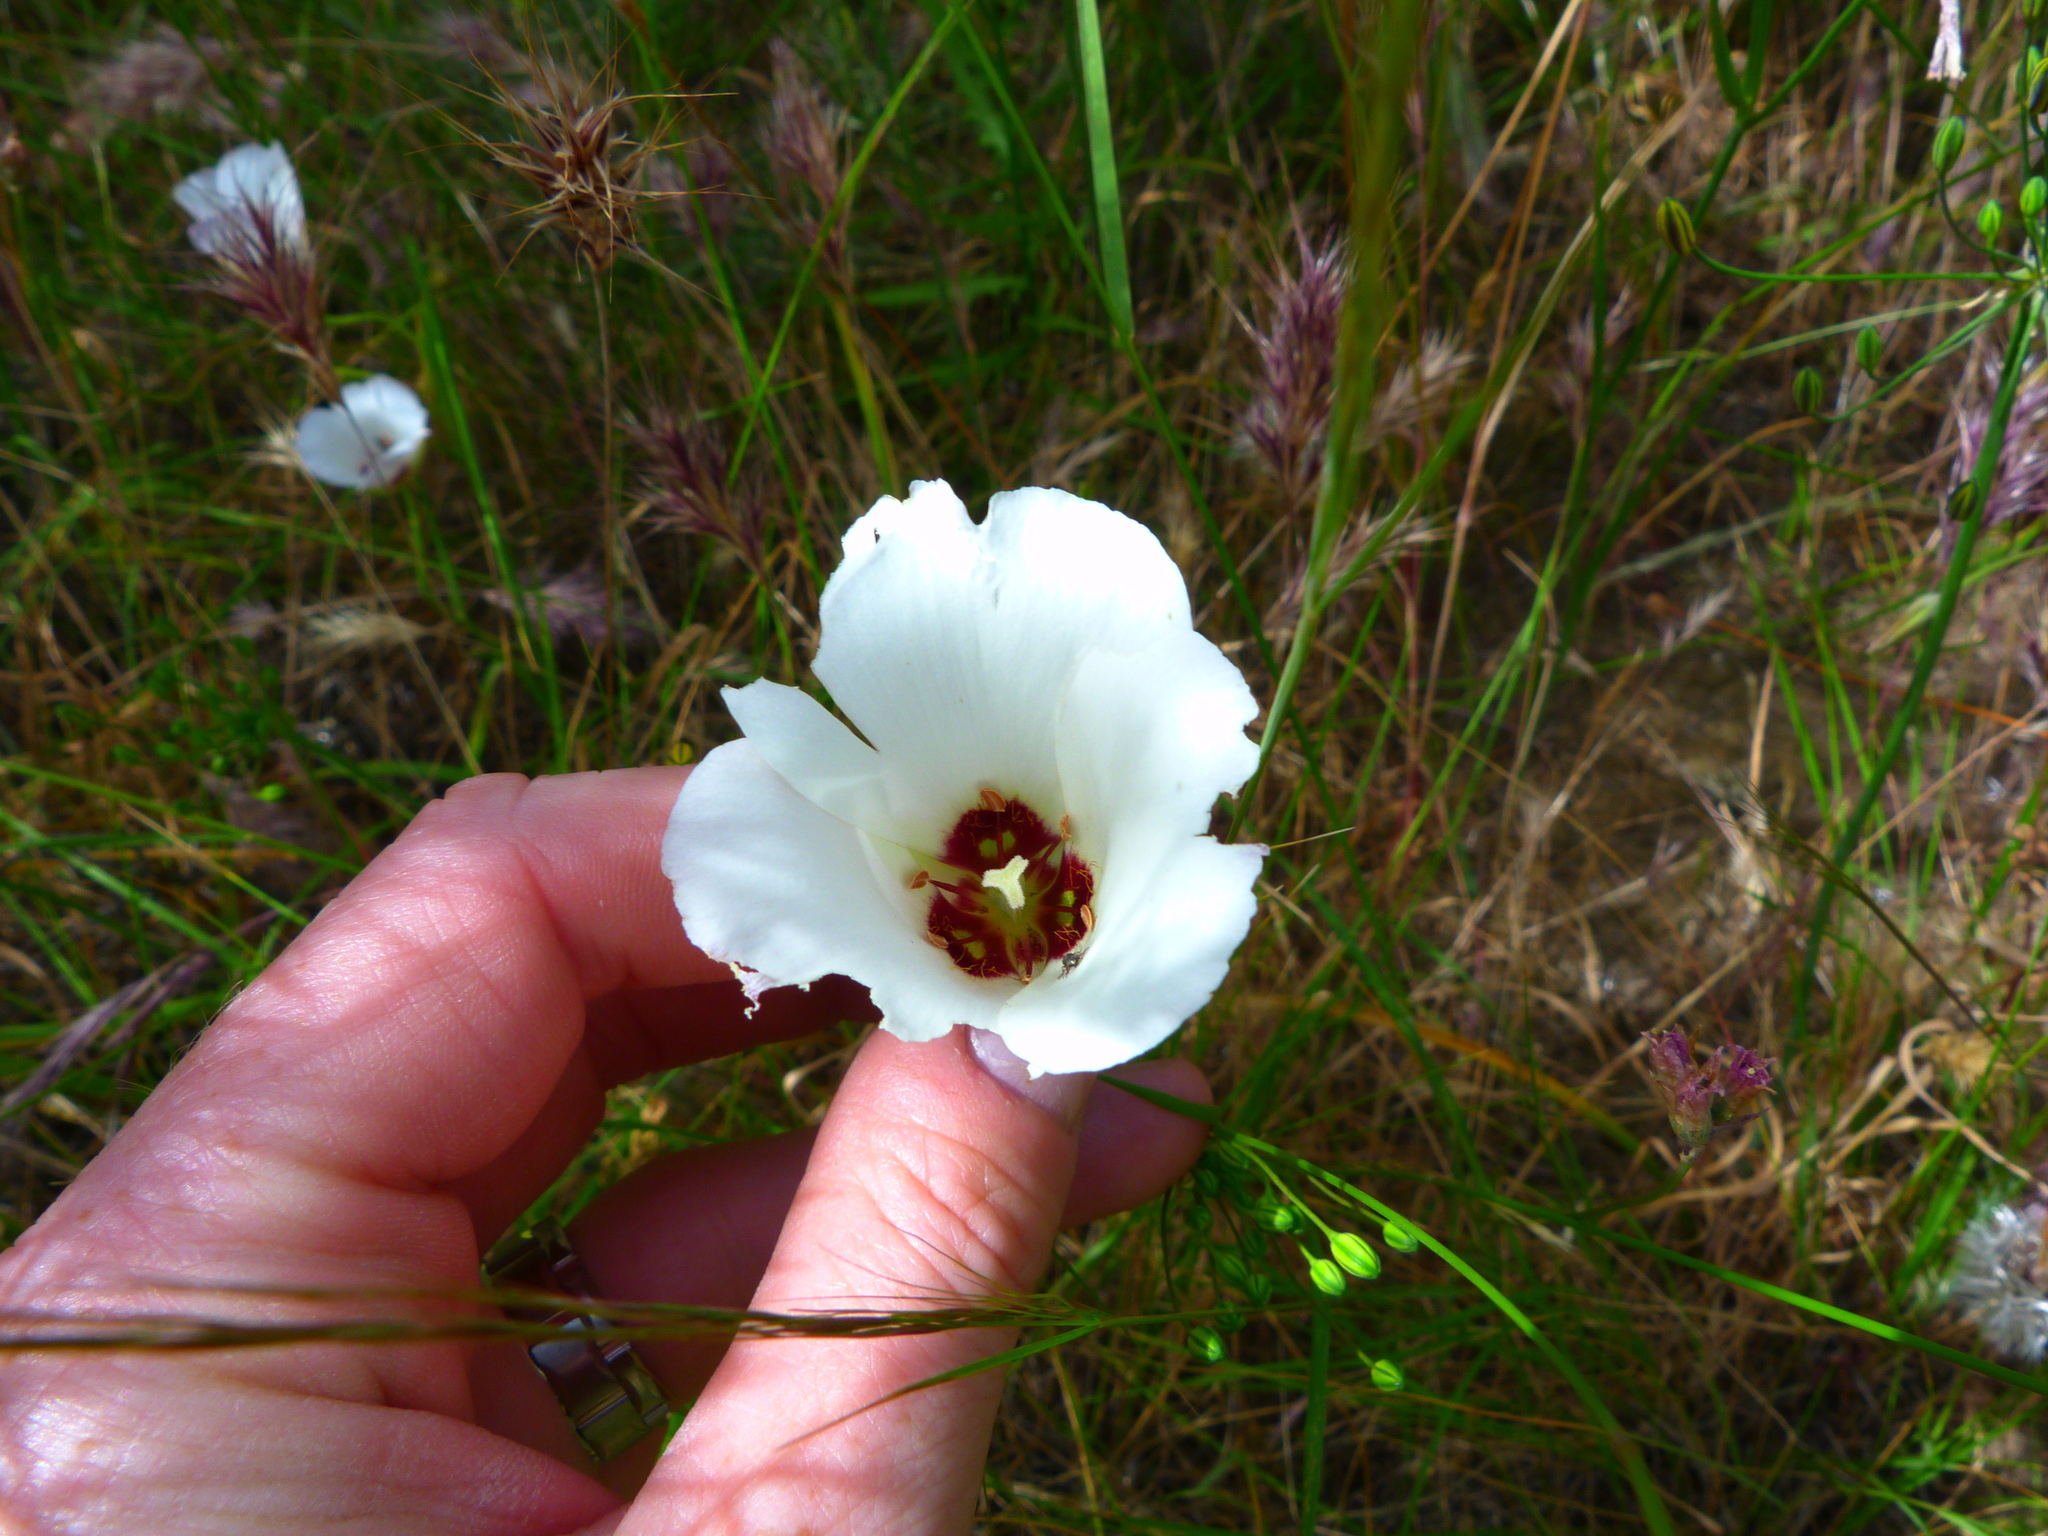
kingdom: Plantae
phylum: Tracheophyta
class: Liliopsida
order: Liliales
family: Liliaceae
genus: Calochortus
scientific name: Calochortus catalinae
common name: Catalina mariposa-lily
